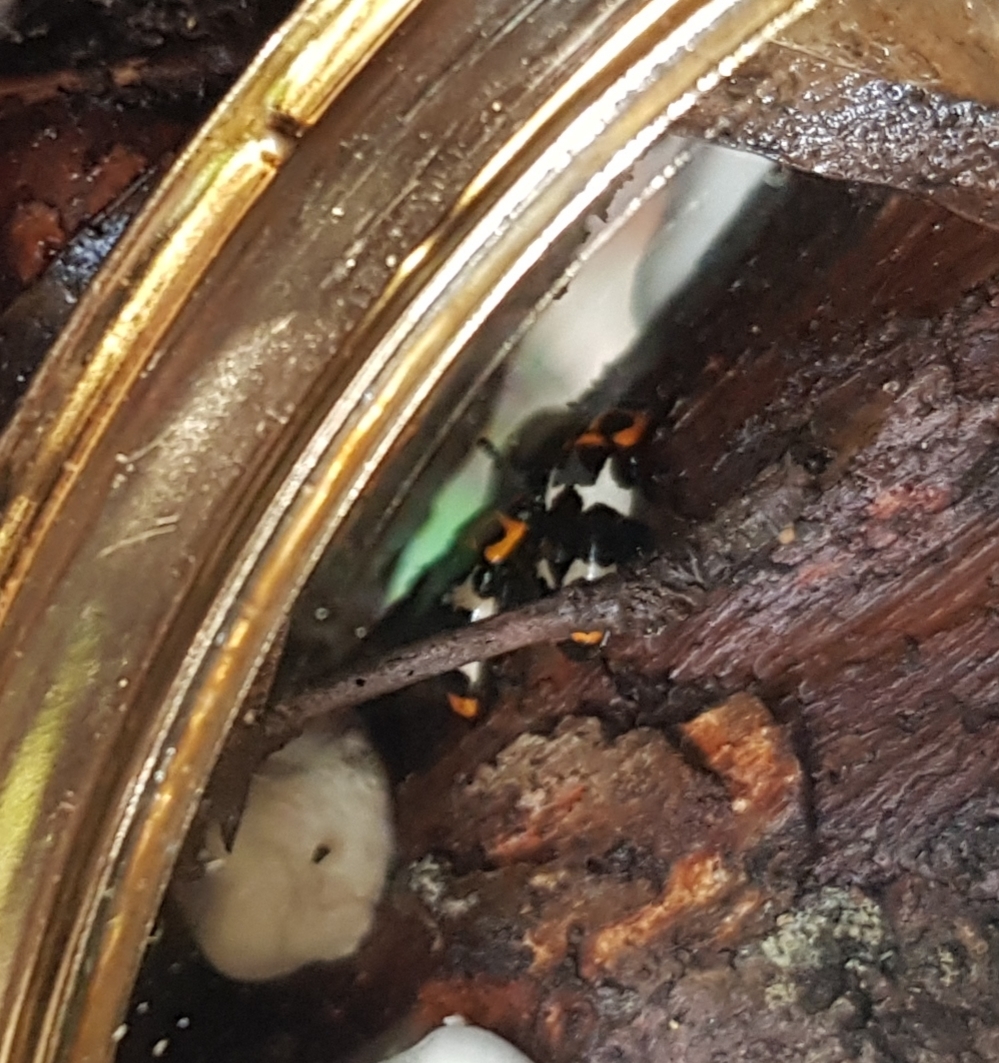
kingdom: Animalia
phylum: Arthropoda
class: Insecta
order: Coleoptera
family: Erotylidae
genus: Episcaphula
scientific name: Episcaphula
